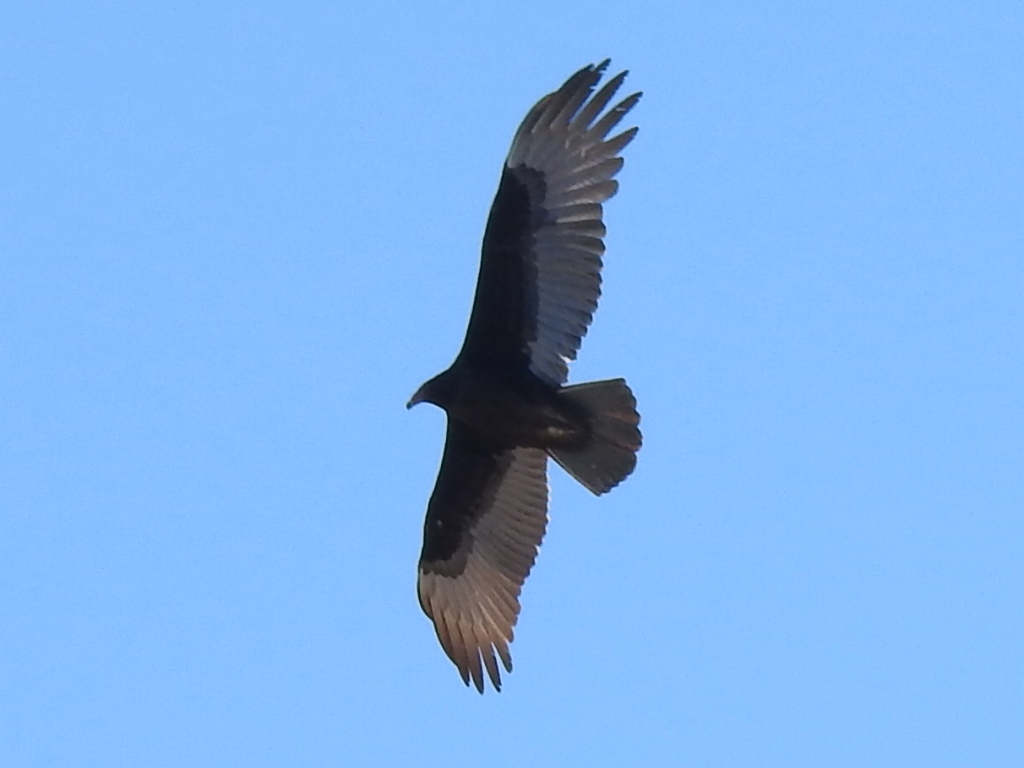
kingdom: Animalia
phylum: Chordata
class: Aves
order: Accipitriformes
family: Cathartidae
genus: Cathartes
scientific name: Cathartes aura
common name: Turkey vulture
